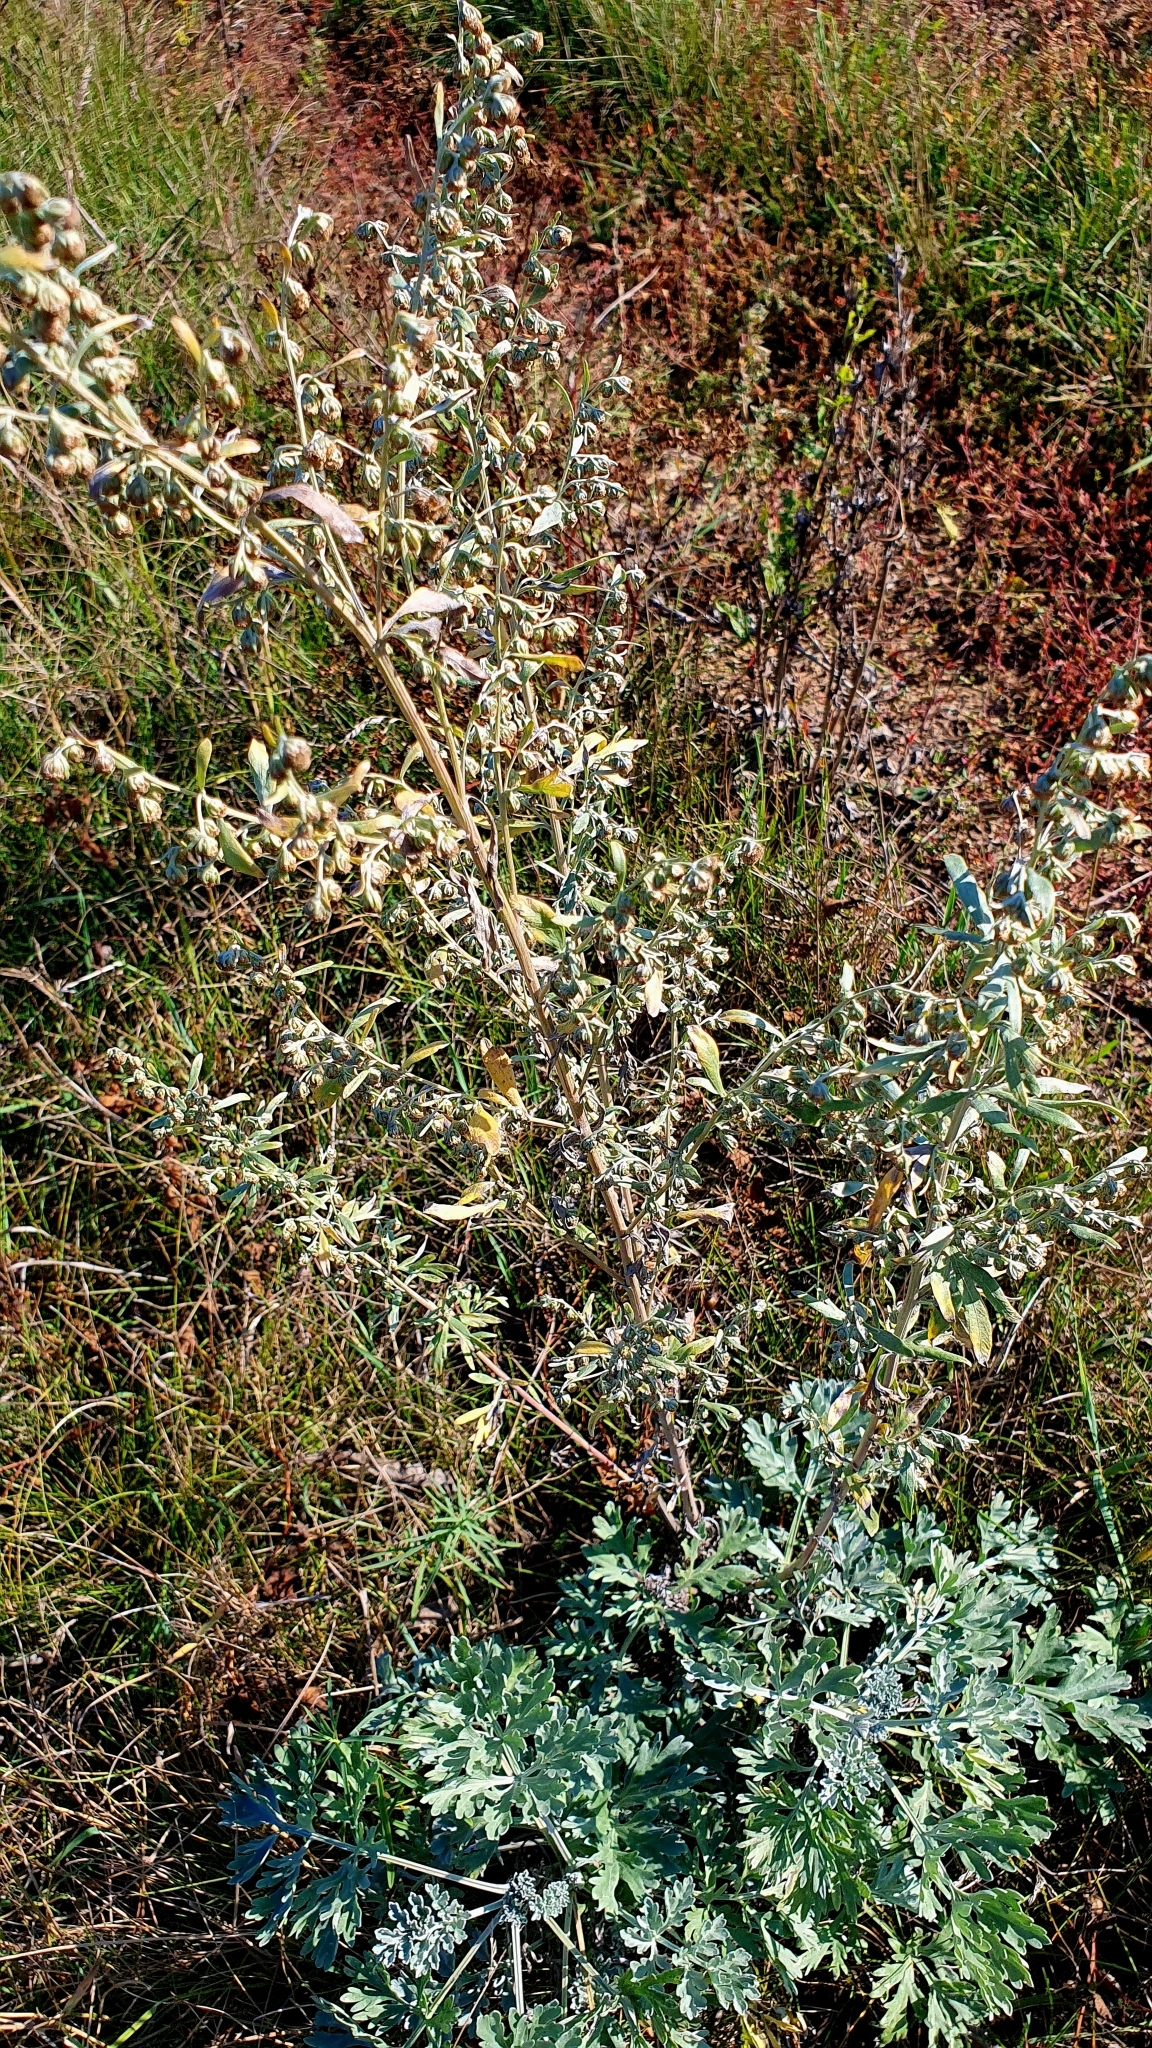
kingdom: Plantae
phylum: Tracheophyta
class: Magnoliopsida
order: Asterales
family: Asteraceae
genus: Artemisia
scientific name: Artemisia absinthium
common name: Wormwood
